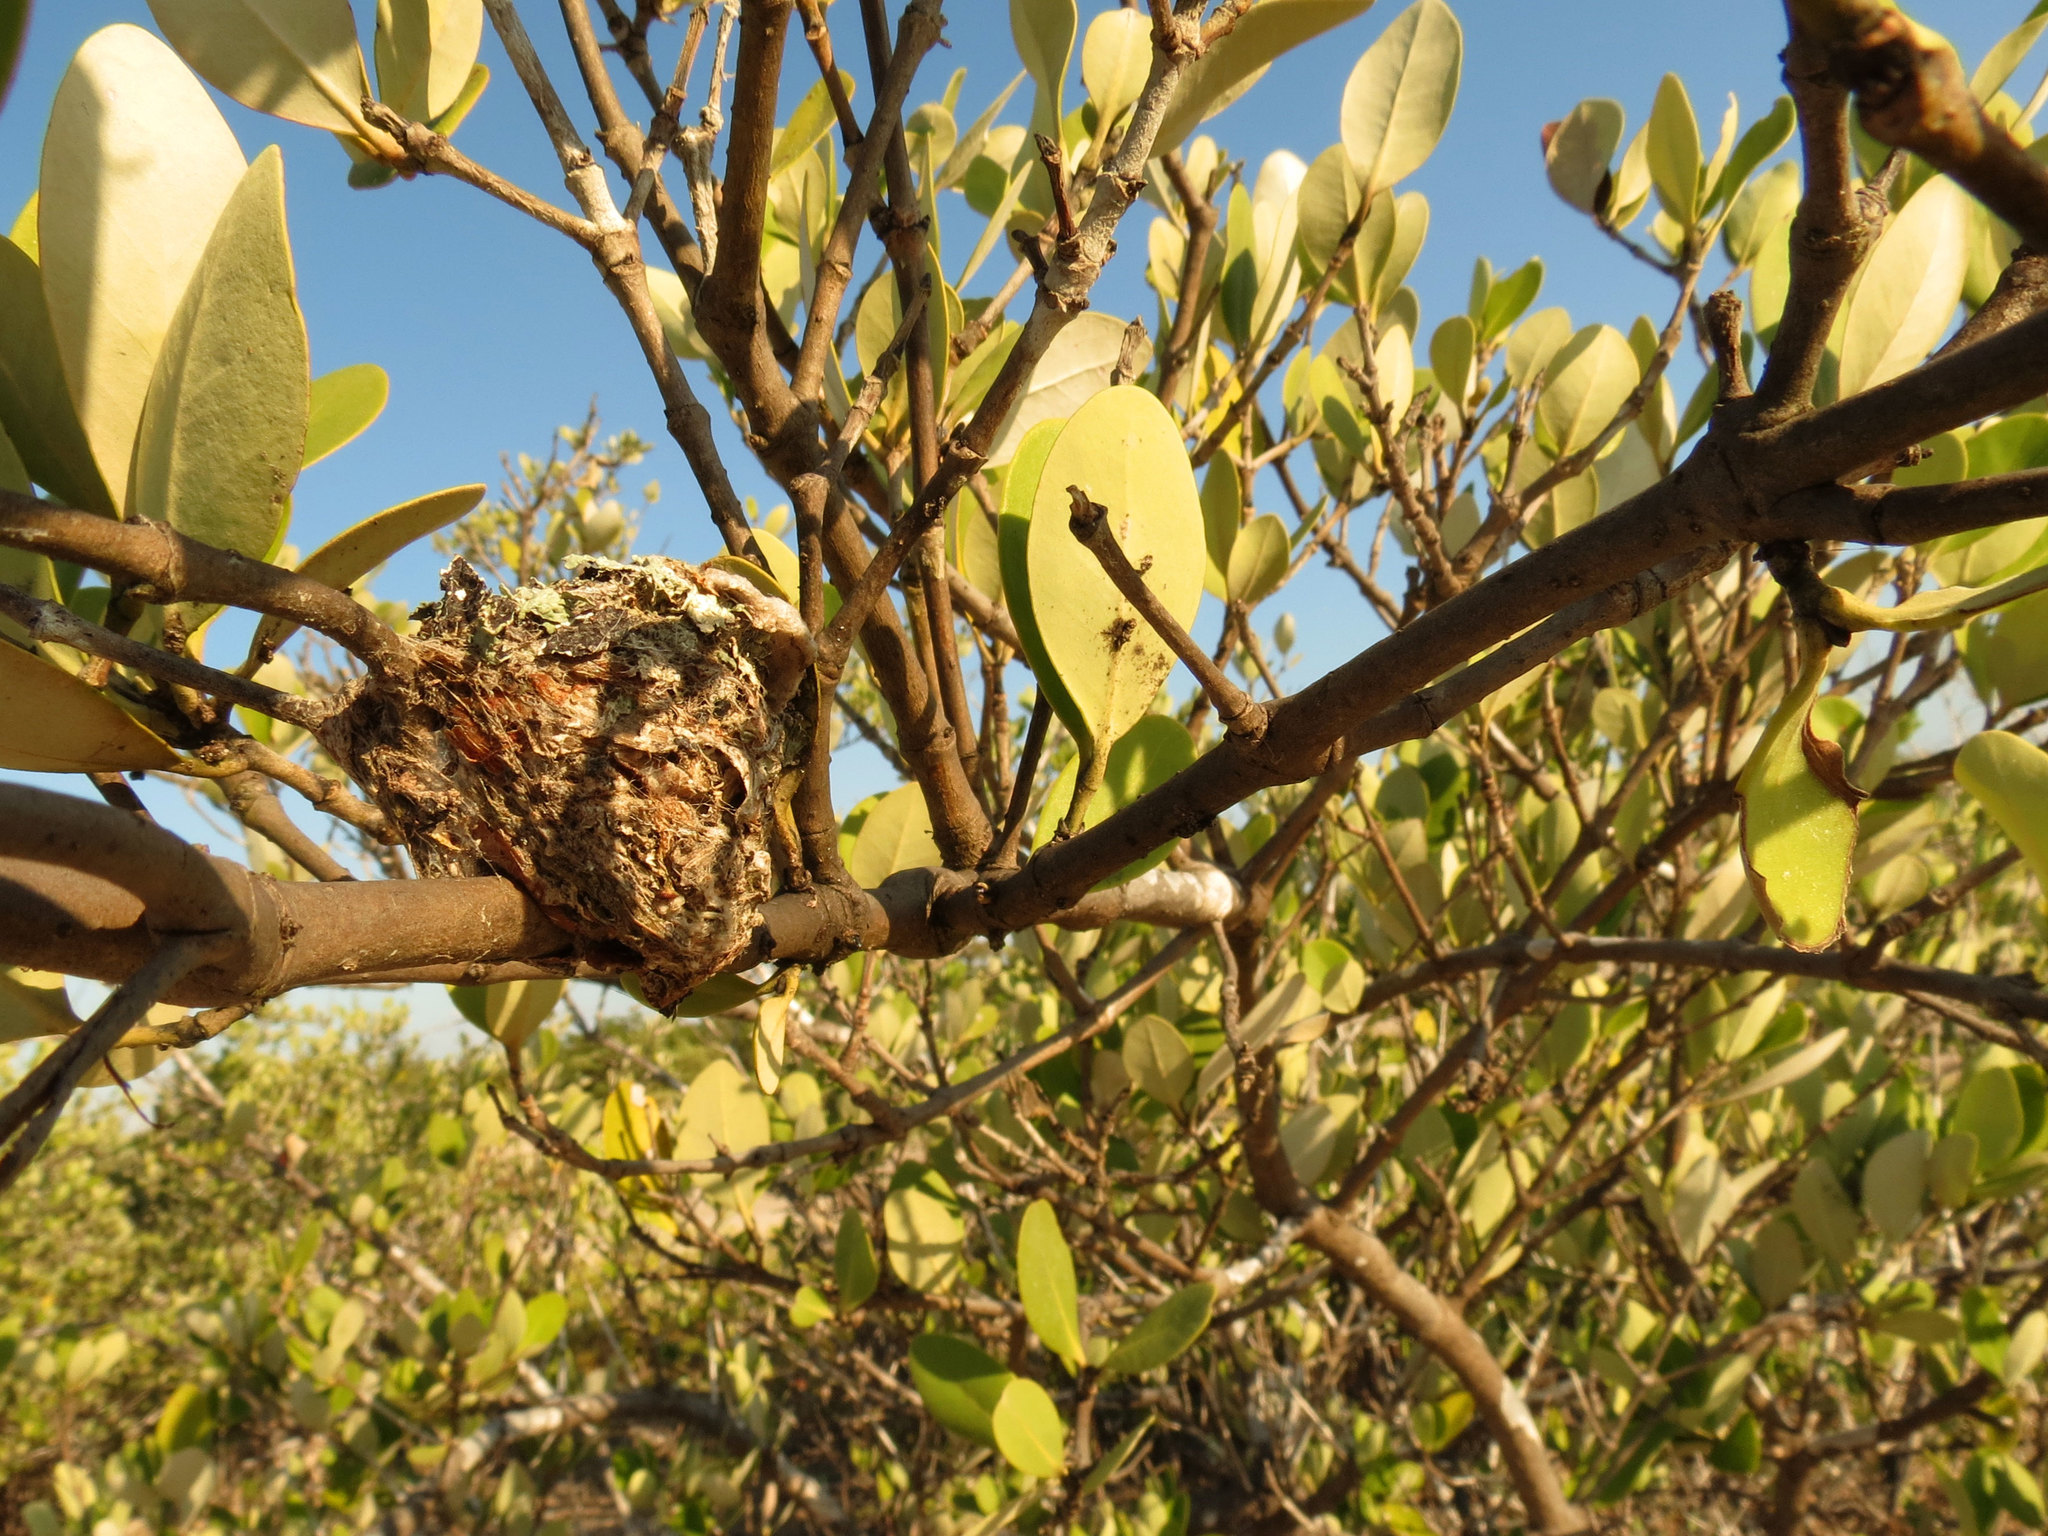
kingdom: Animalia
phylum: Chordata
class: Aves
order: Apodiformes
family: Trochilidae
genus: Doricha
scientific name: Doricha eliza
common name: Mexican sheartail
